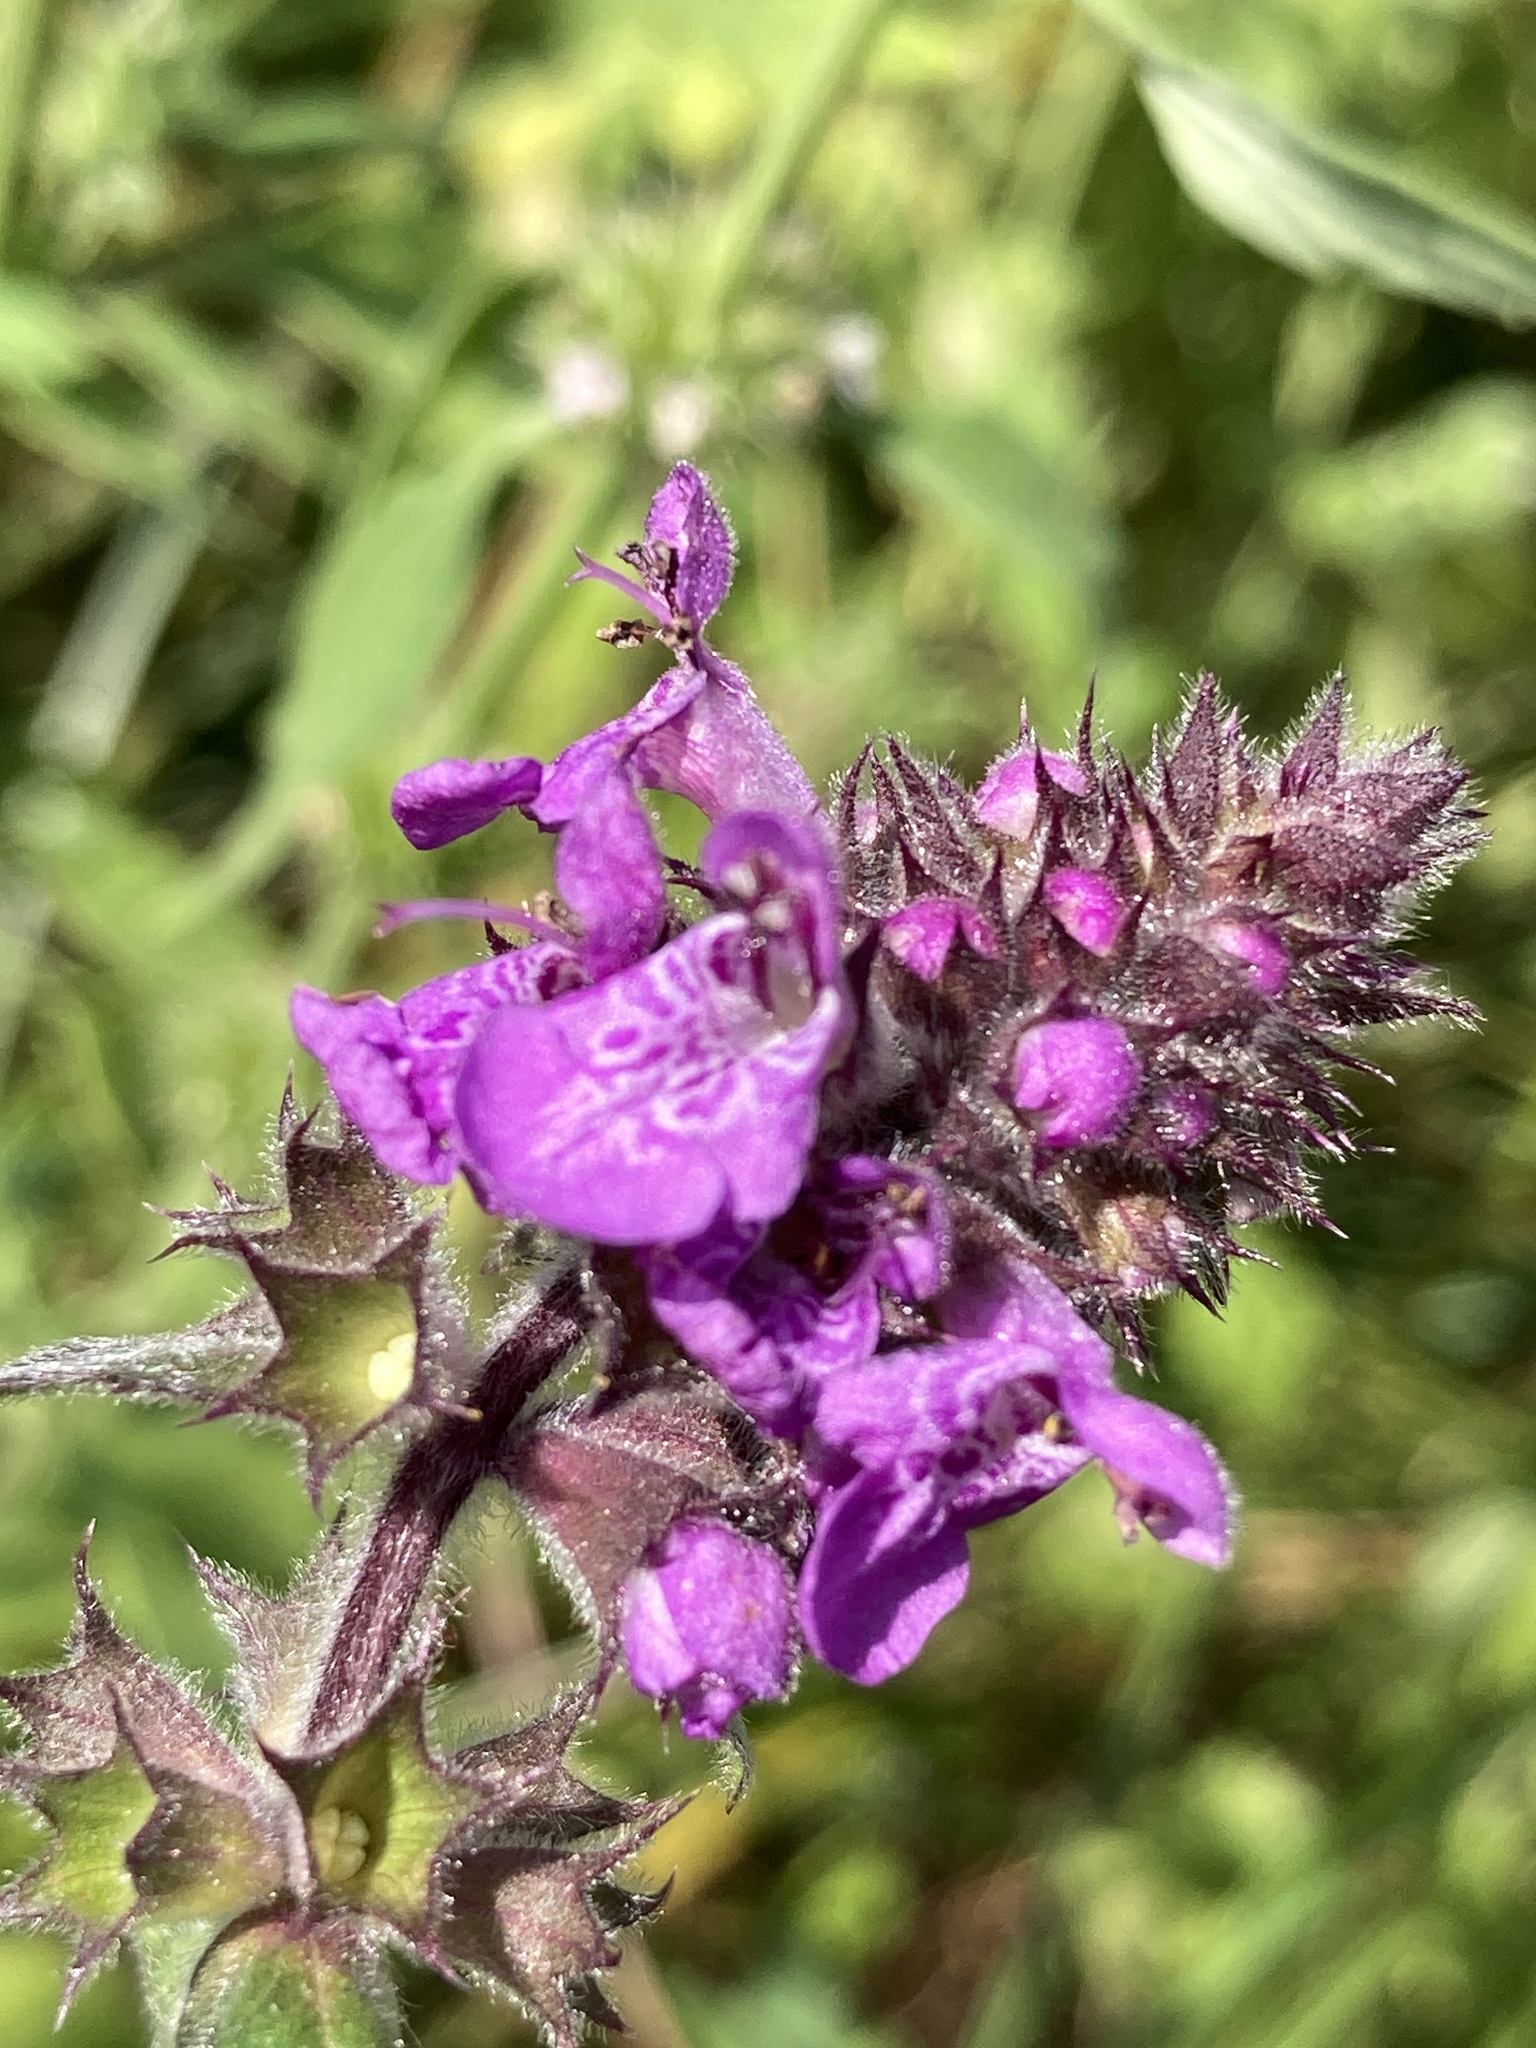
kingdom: Plantae
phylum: Tracheophyta
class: Magnoliopsida
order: Lamiales
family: Lamiaceae
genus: Stachys
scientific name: Stachys palustris
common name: Marsh woundwort
